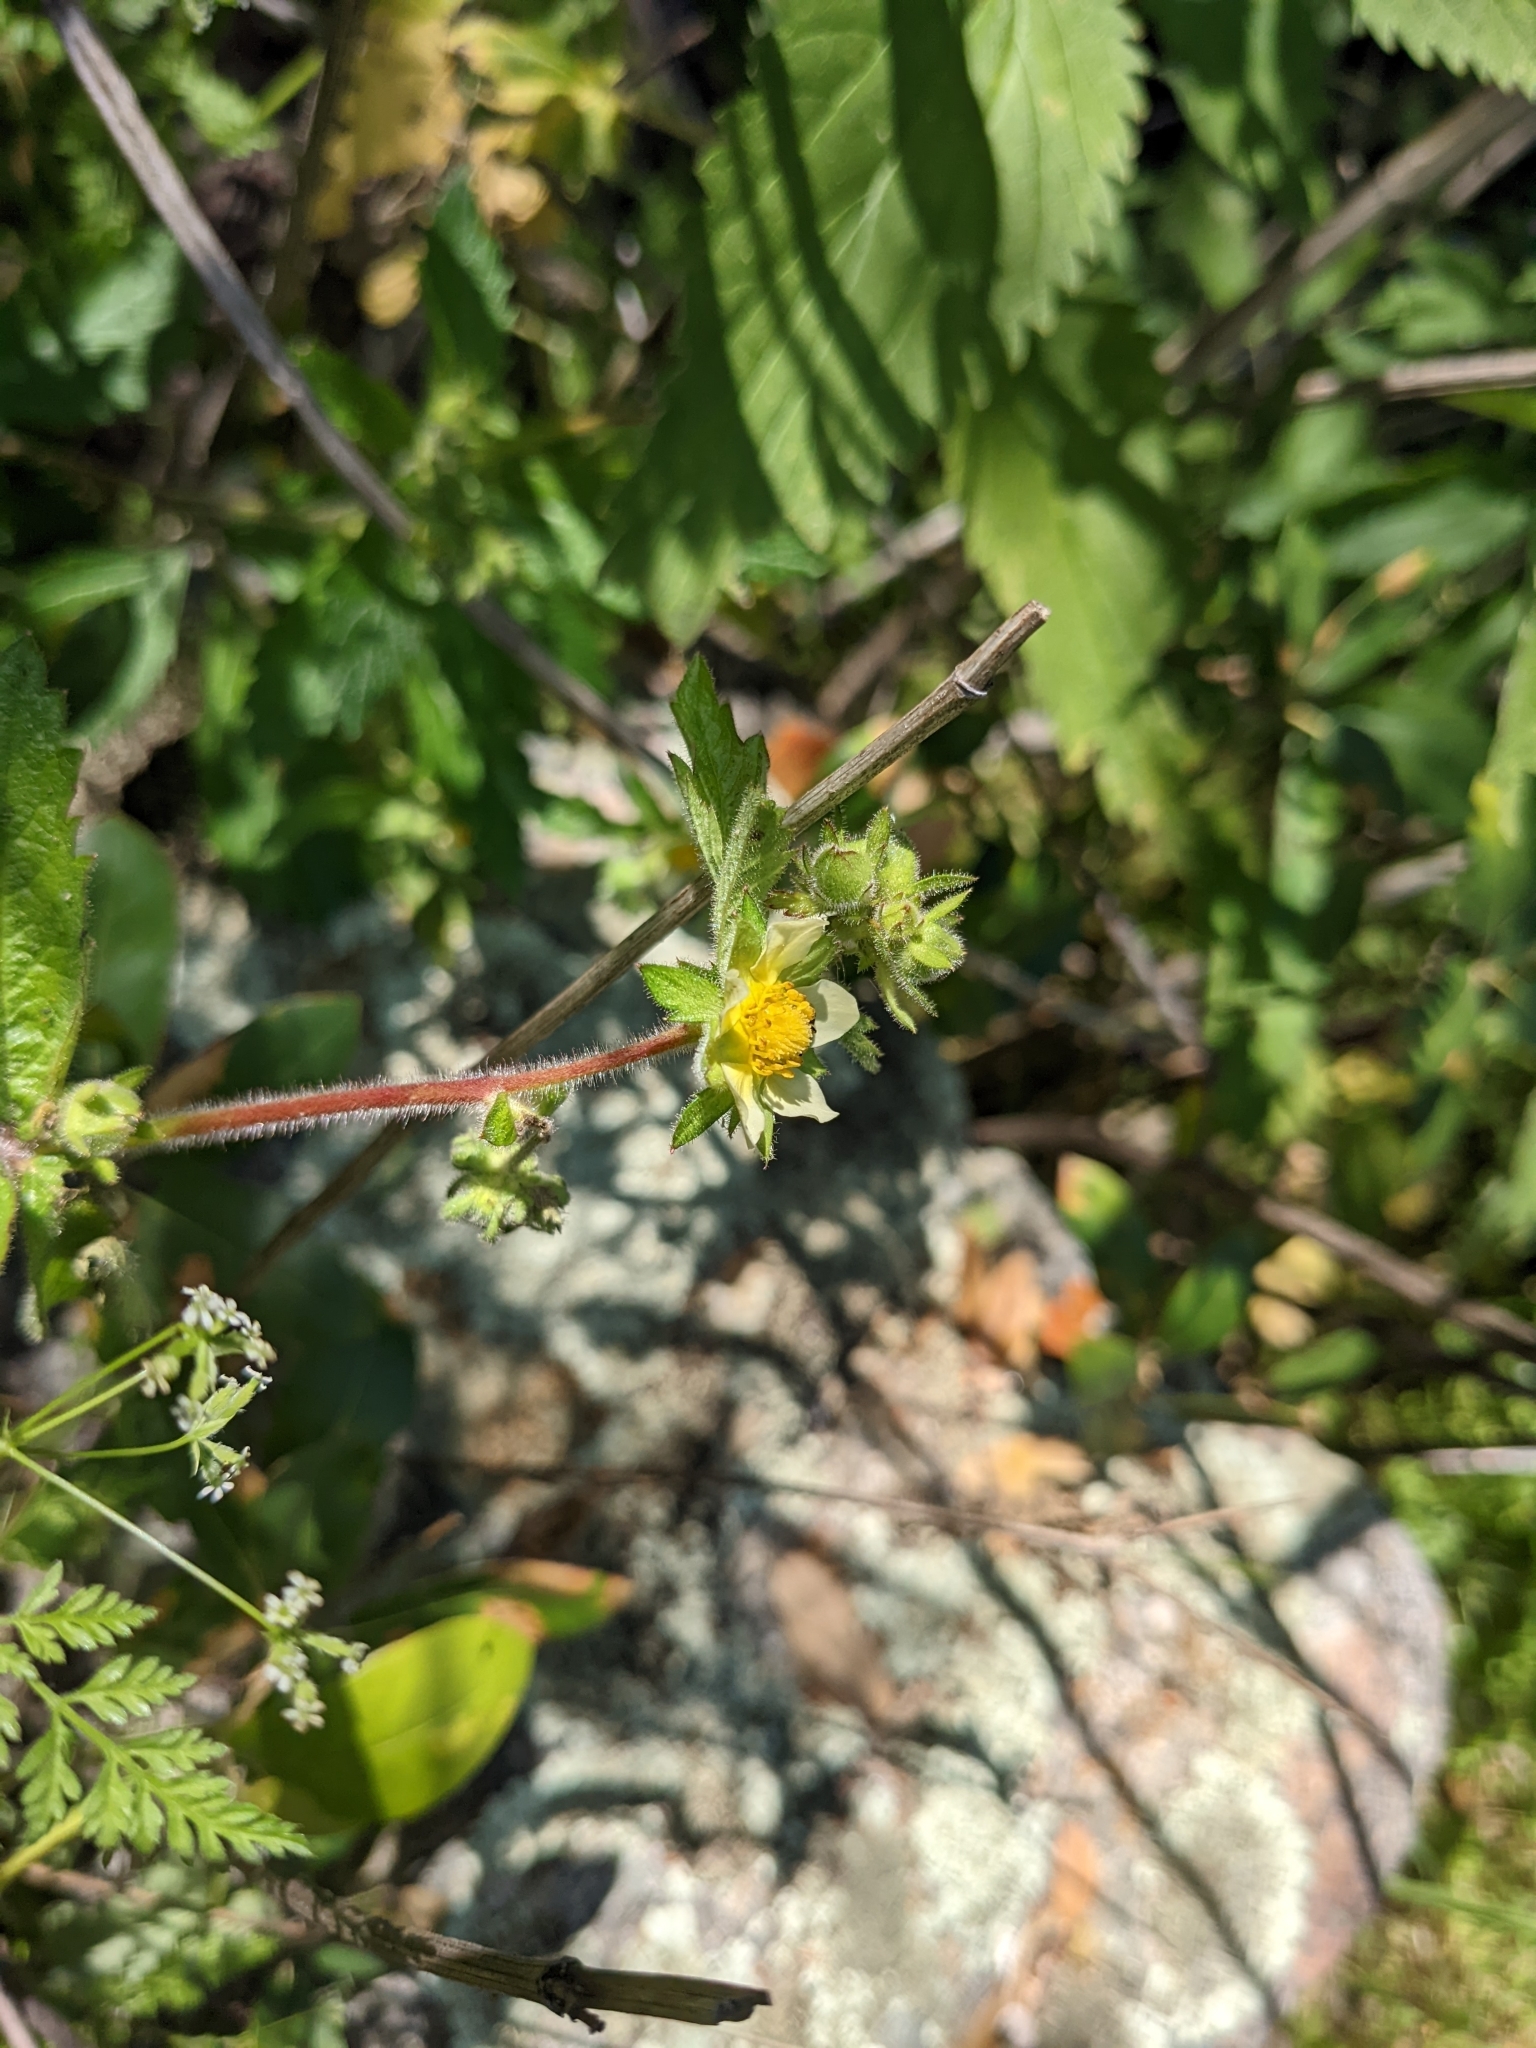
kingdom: Plantae
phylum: Tracheophyta
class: Magnoliopsida
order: Rosales
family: Rosaceae
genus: Drymocallis
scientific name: Drymocallis glandulosa
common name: Sticky cinquefoil
